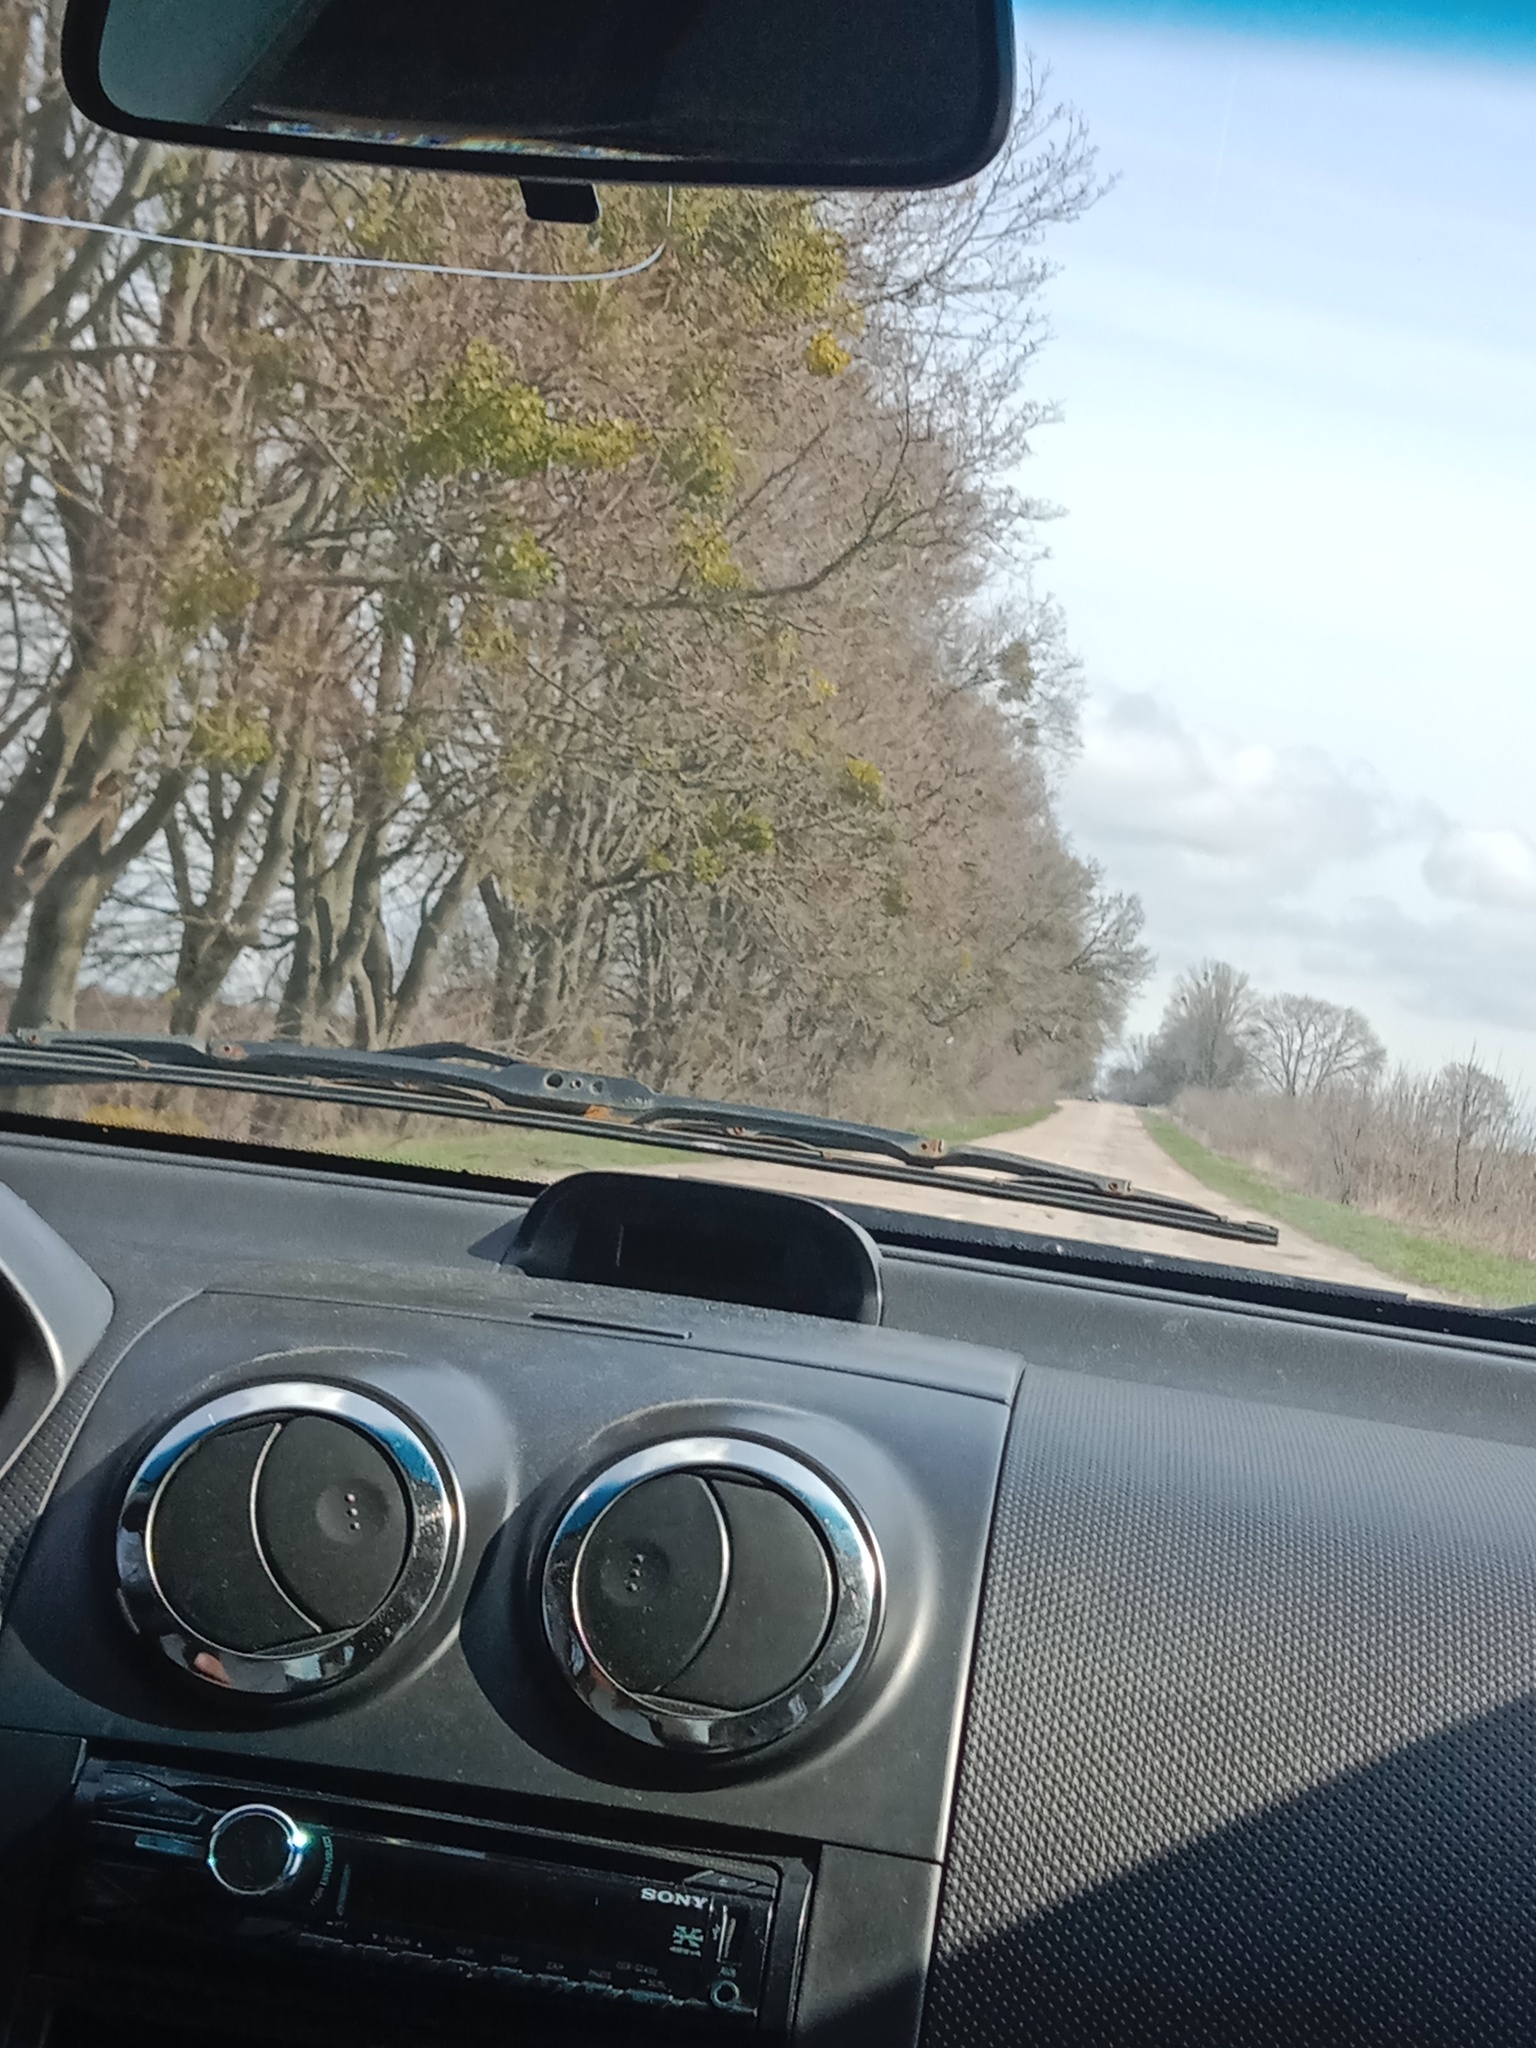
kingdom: Plantae
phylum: Tracheophyta
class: Magnoliopsida
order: Santalales
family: Viscaceae
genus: Viscum
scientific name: Viscum album
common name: Mistletoe
